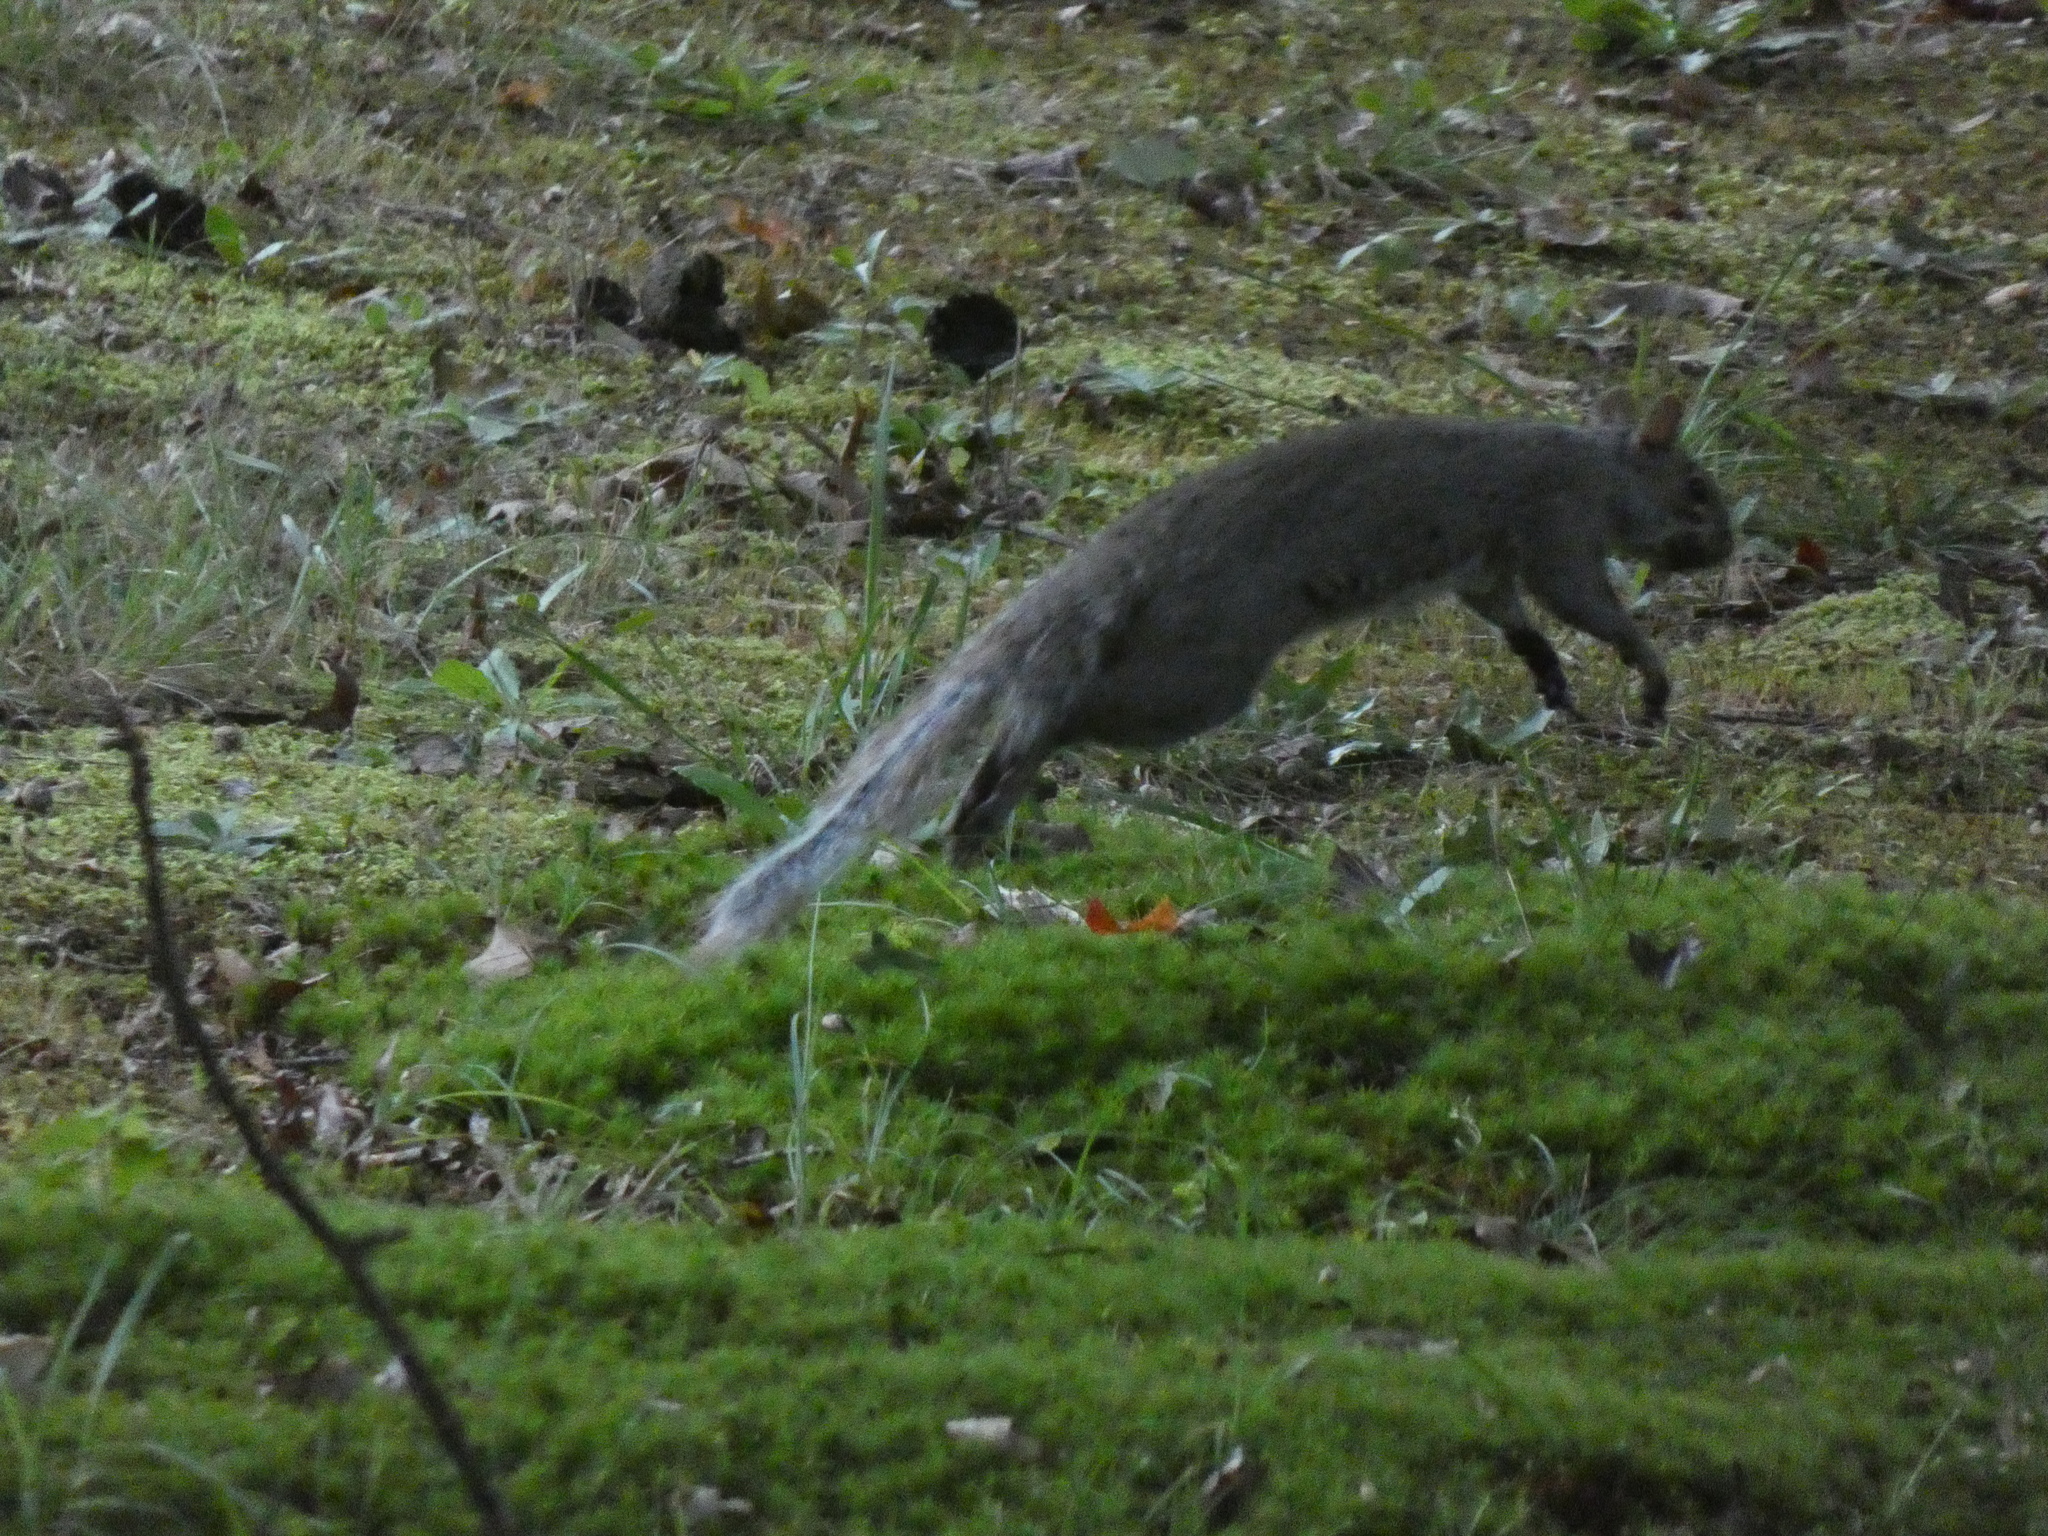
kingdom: Animalia
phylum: Chordata
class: Mammalia
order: Rodentia
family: Sciuridae
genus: Sciurus
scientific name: Sciurus carolinensis
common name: Eastern gray squirrel
